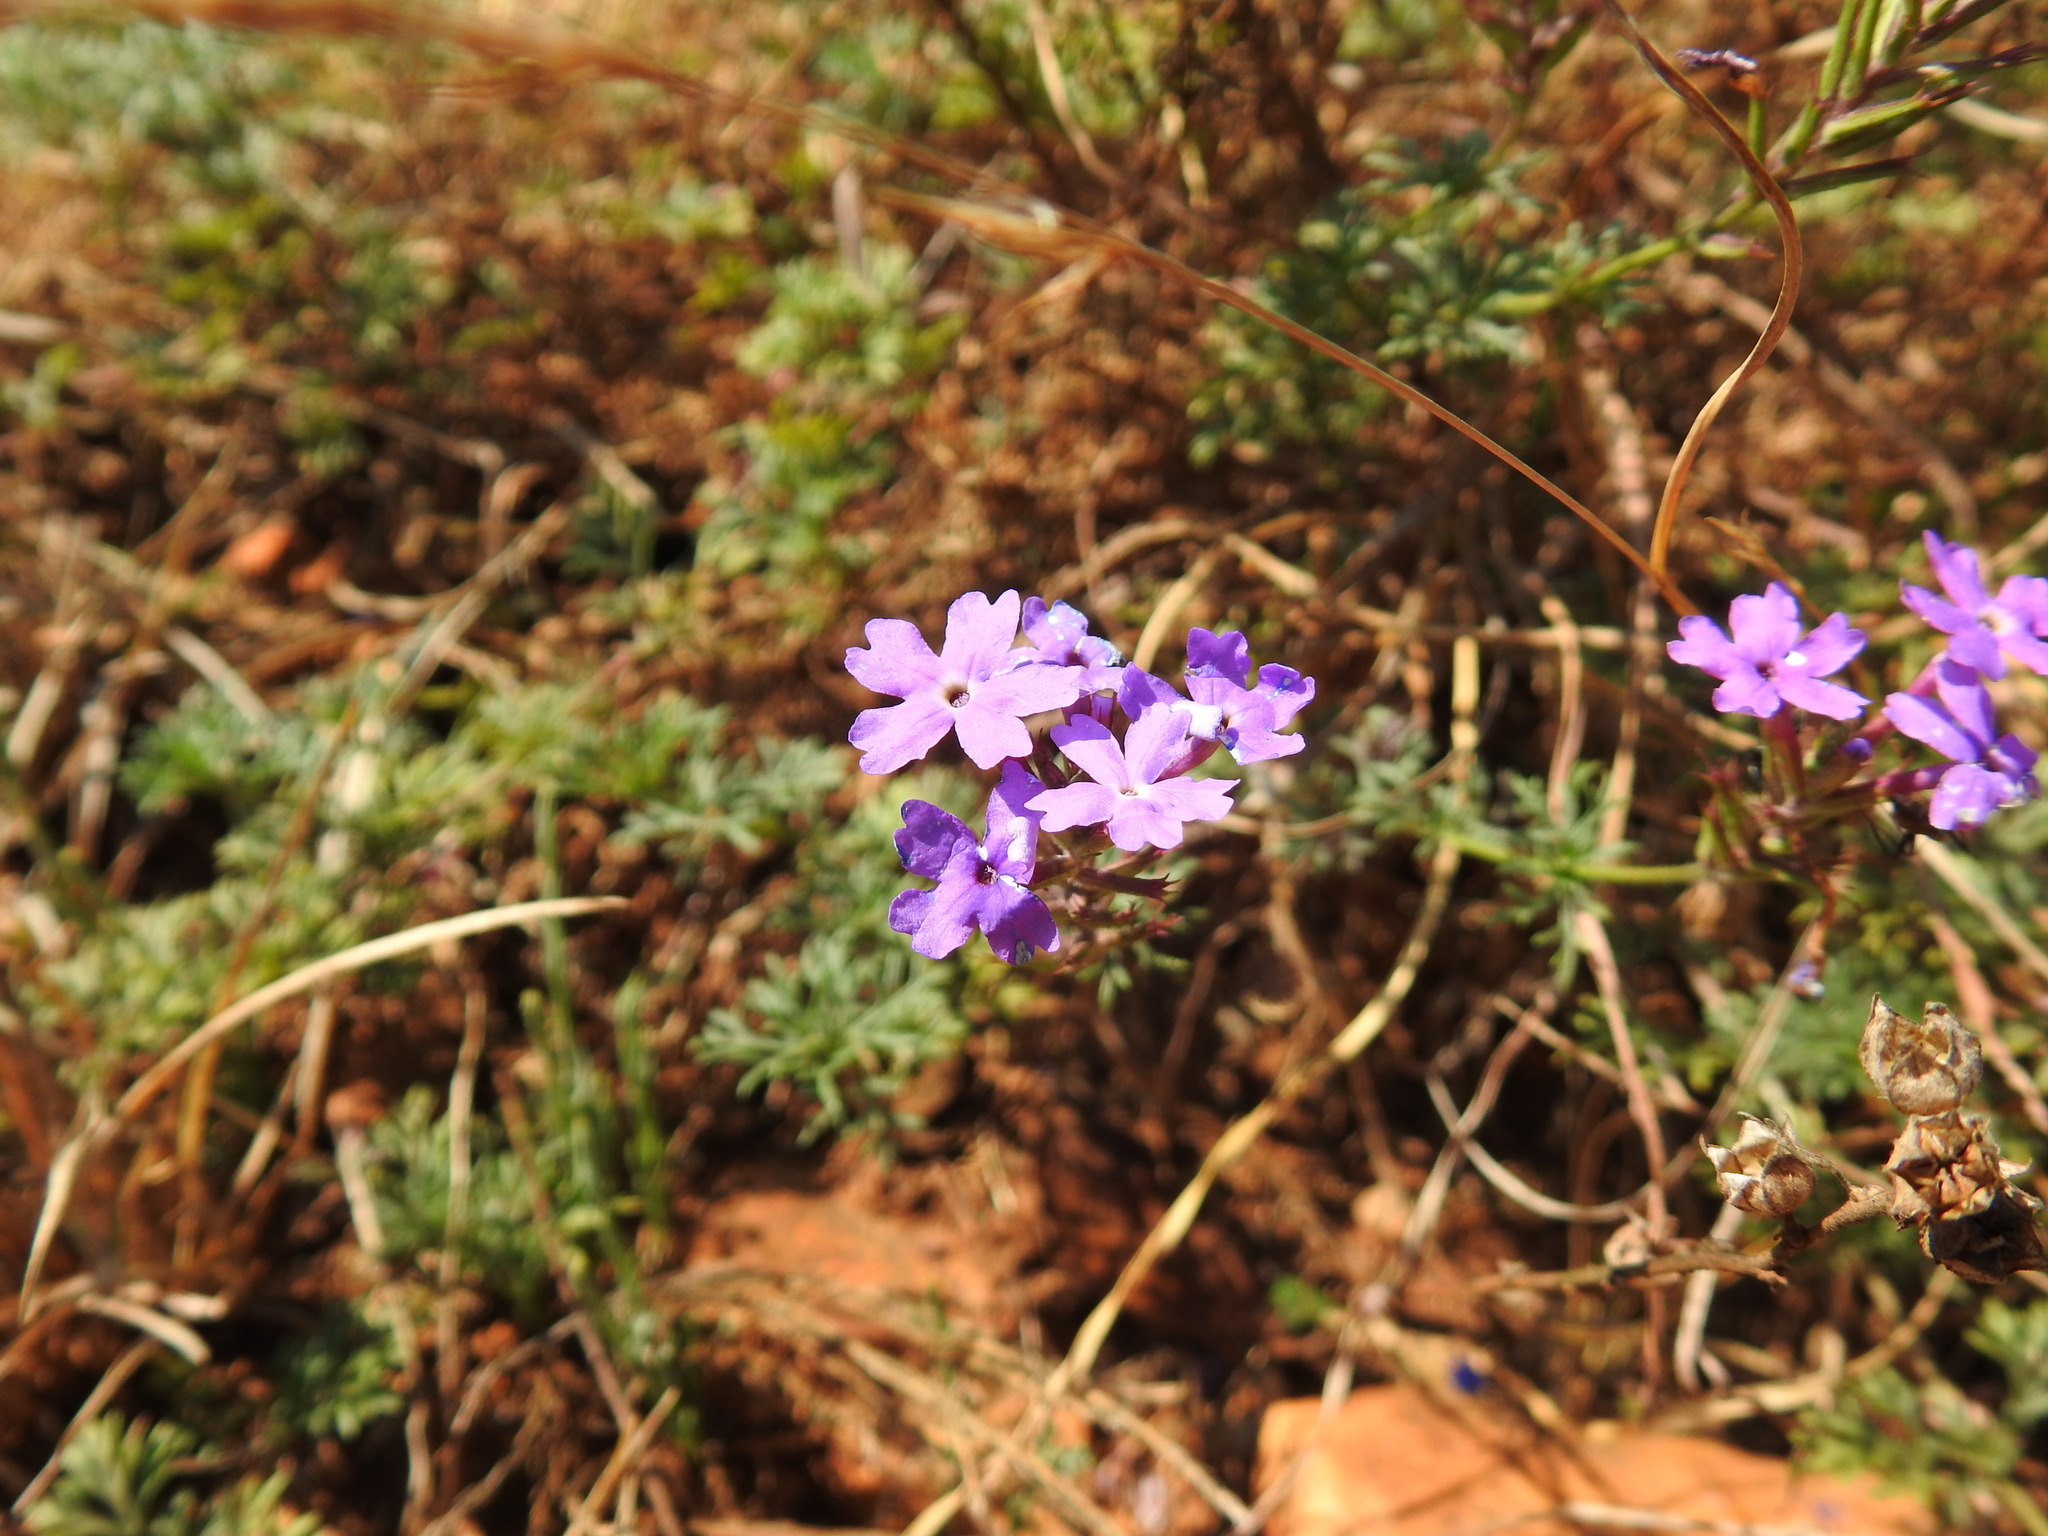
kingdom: Plantae
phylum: Tracheophyta
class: Magnoliopsida
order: Lamiales
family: Verbenaceae
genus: Verbena
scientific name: Verbena aristigera
